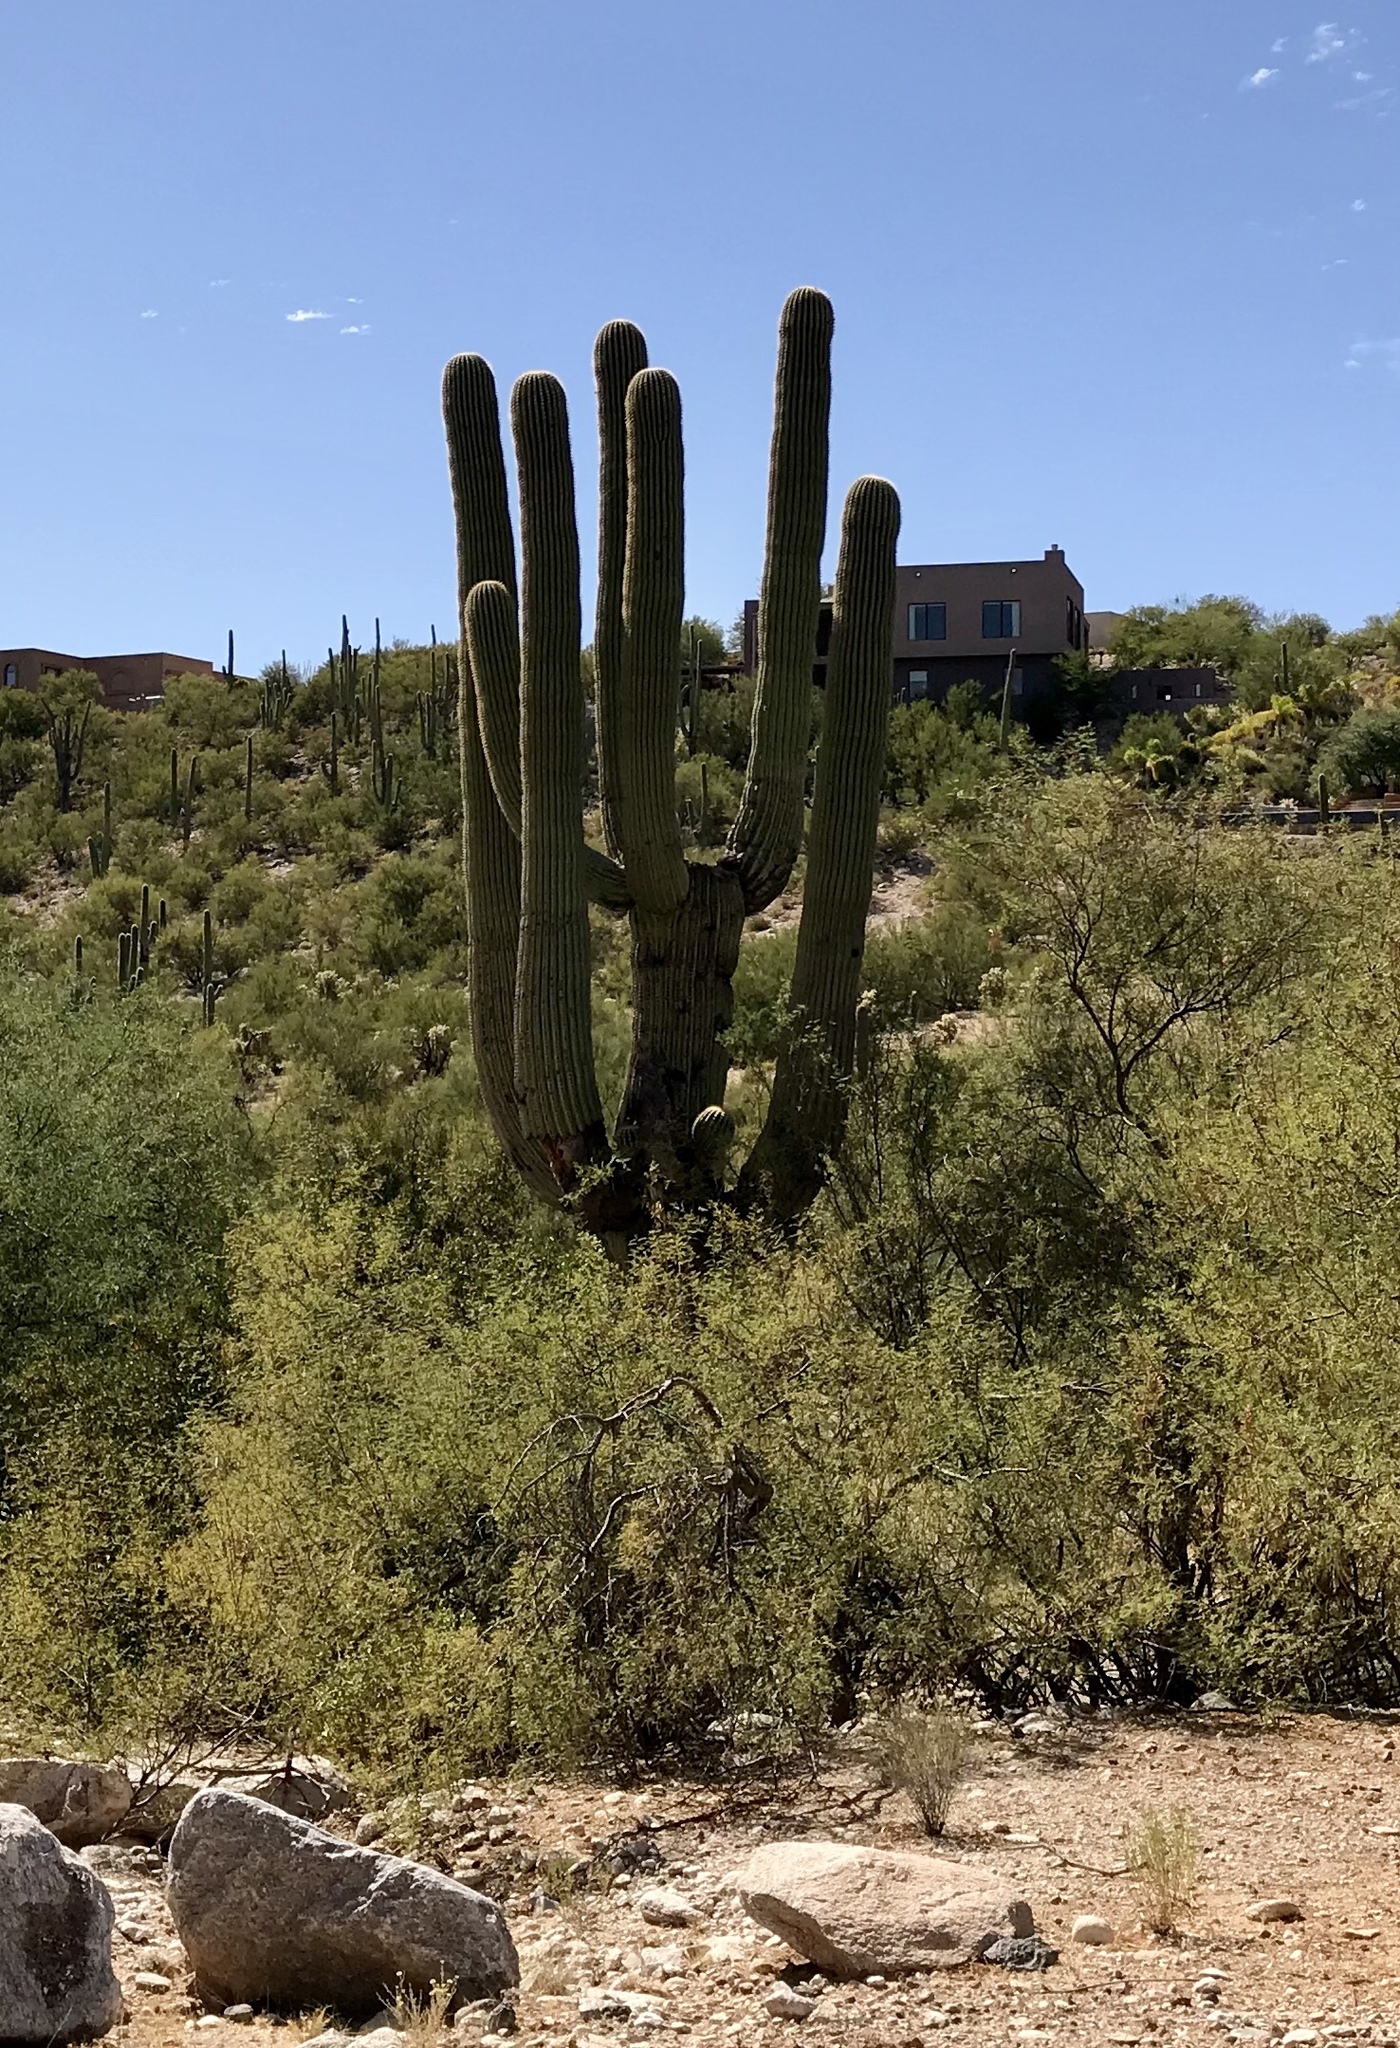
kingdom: Plantae
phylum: Tracheophyta
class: Magnoliopsida
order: Caryophyllales
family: Cactaceae
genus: Carnegiea
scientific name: Carnegiea gigantea
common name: Saguaro
